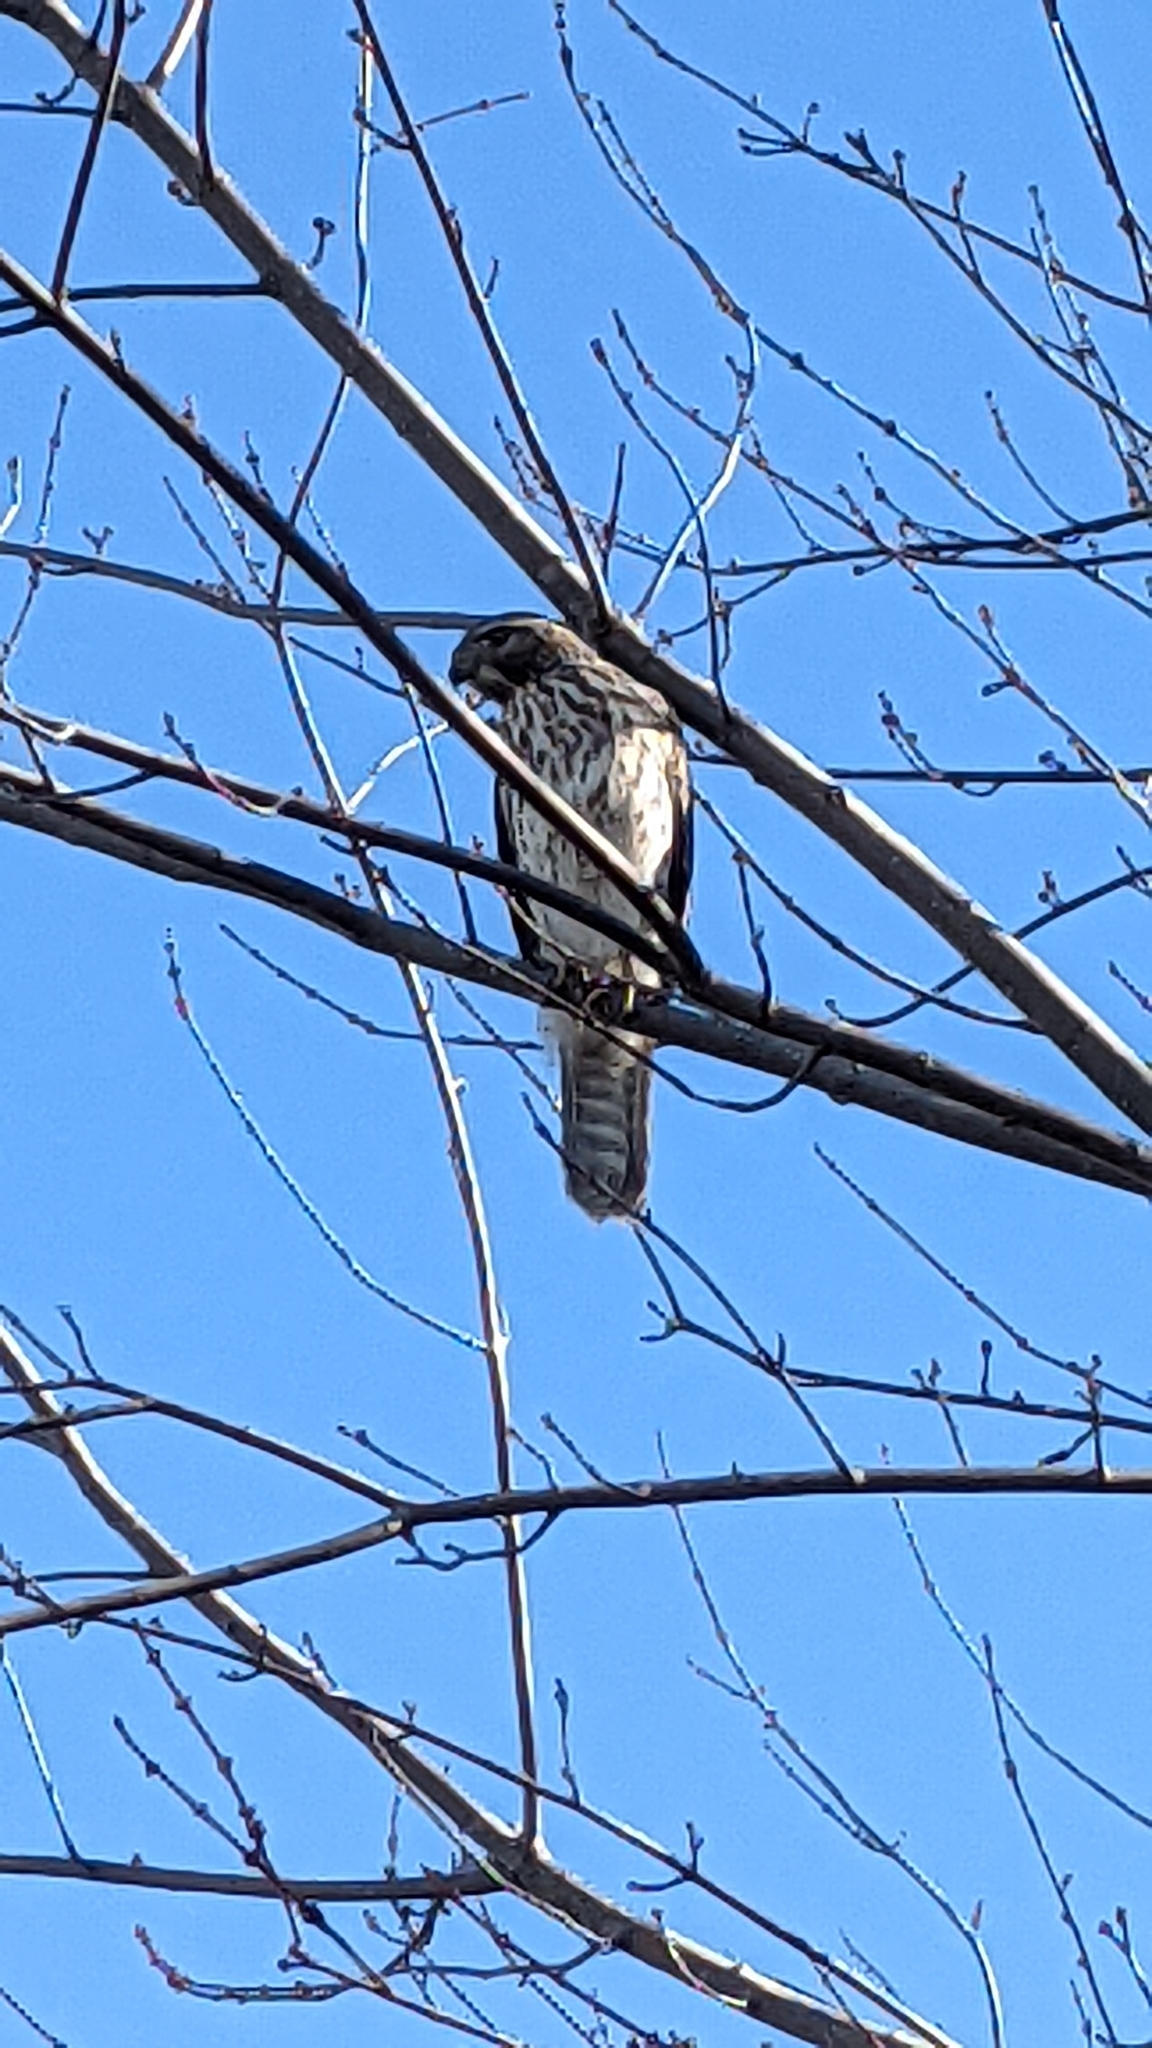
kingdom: Animalia
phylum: Chordata
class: Aves
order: Accipitriformes
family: Accipitridae
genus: Buteo
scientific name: Buteo lineatus
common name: Red-shouldered hawk
